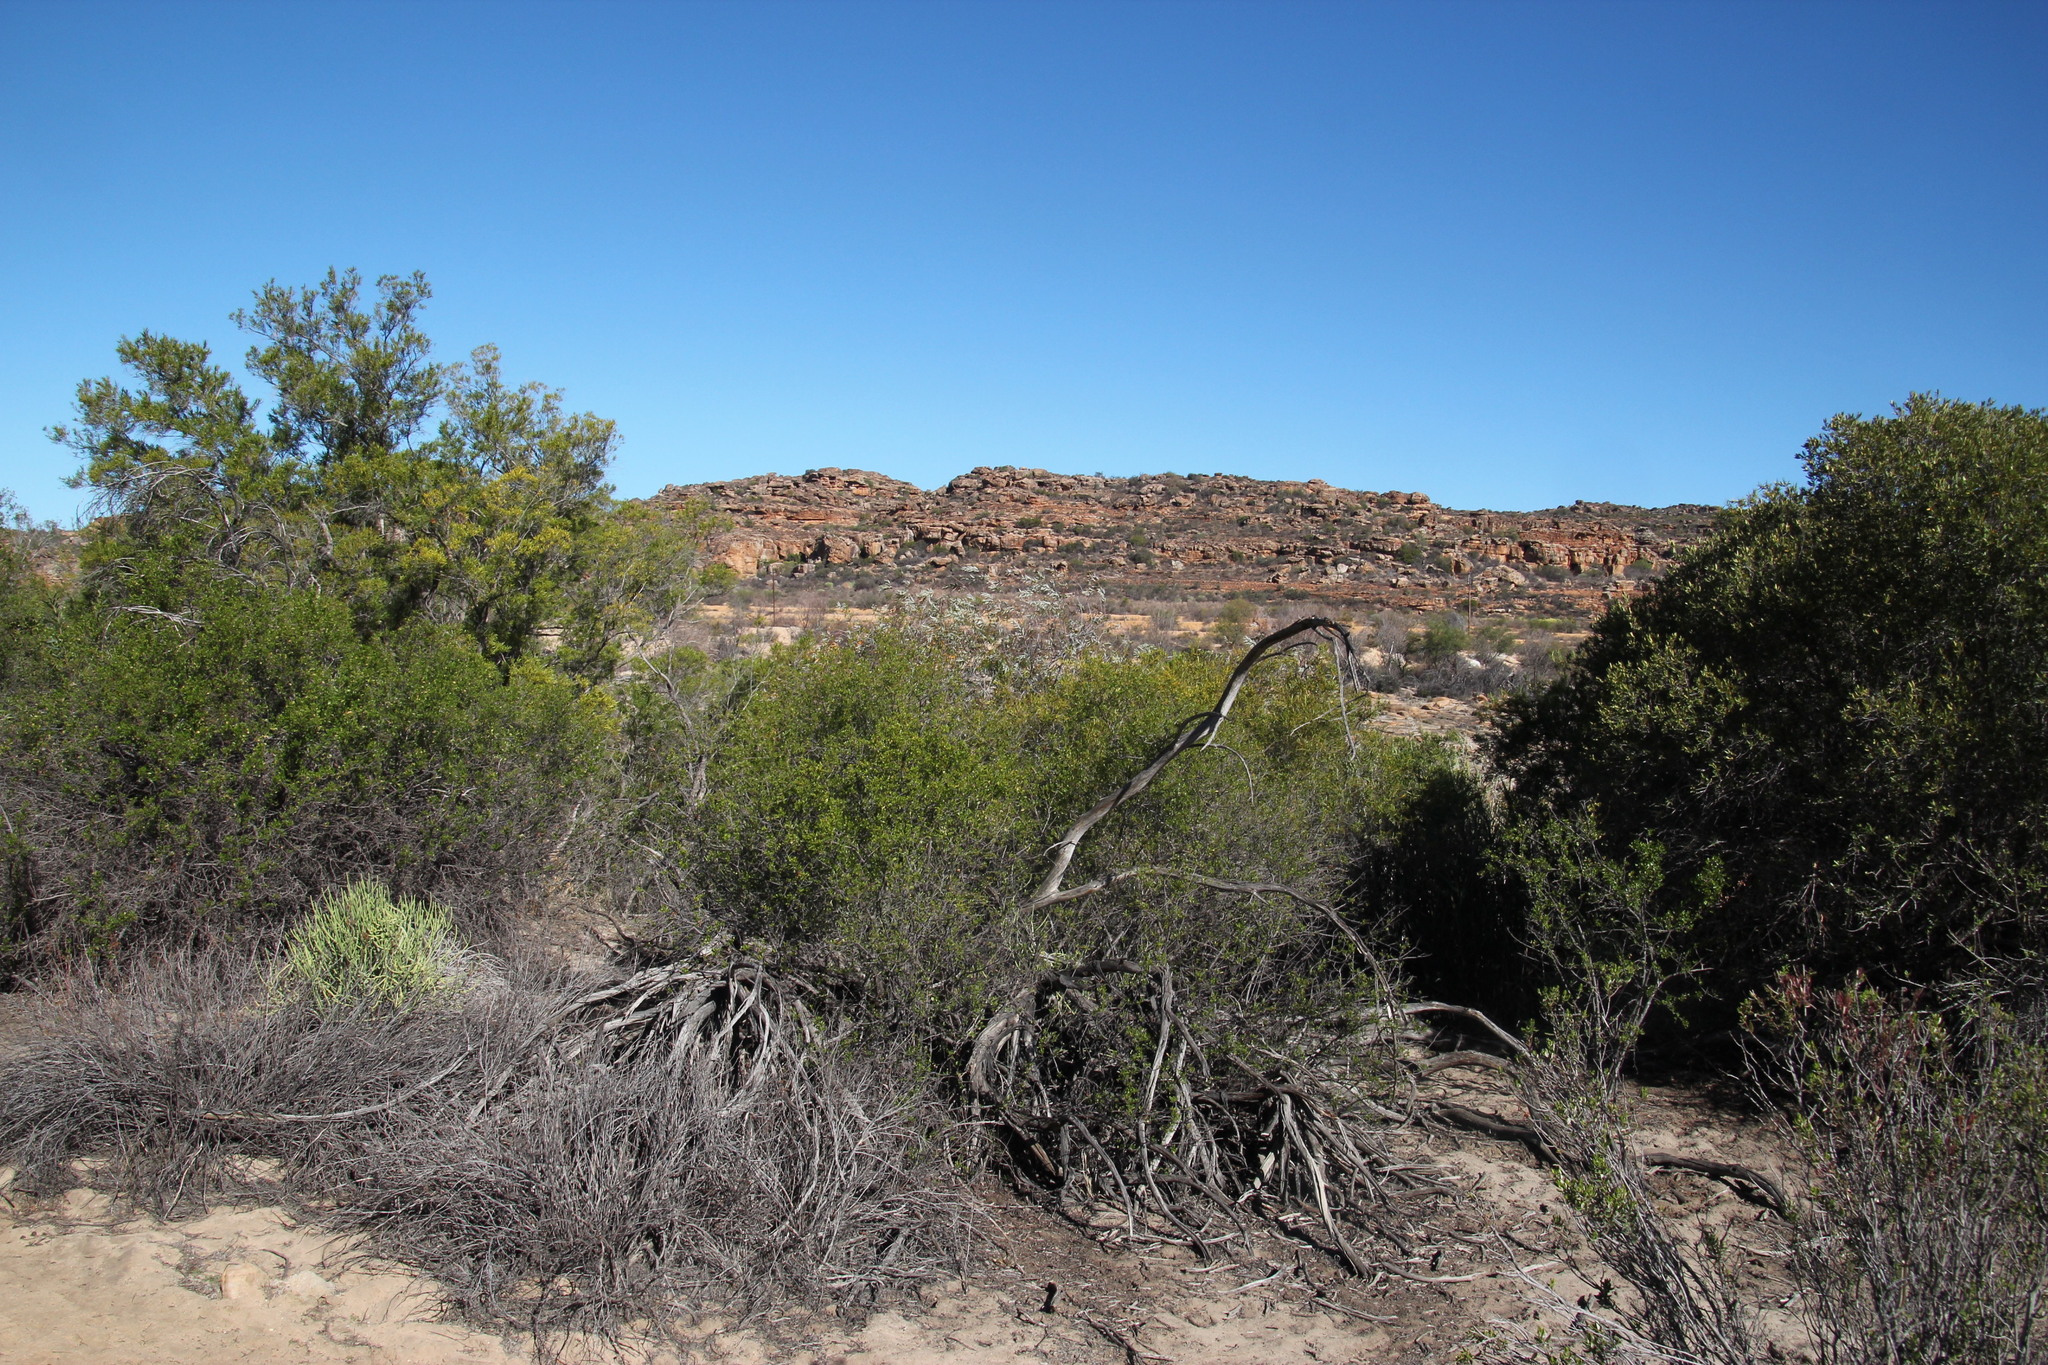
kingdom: Plantae
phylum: Tracheophyta
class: Magnoliopsida
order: Malpighiales
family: Salicaceae
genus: Salix
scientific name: Salix mucronata
